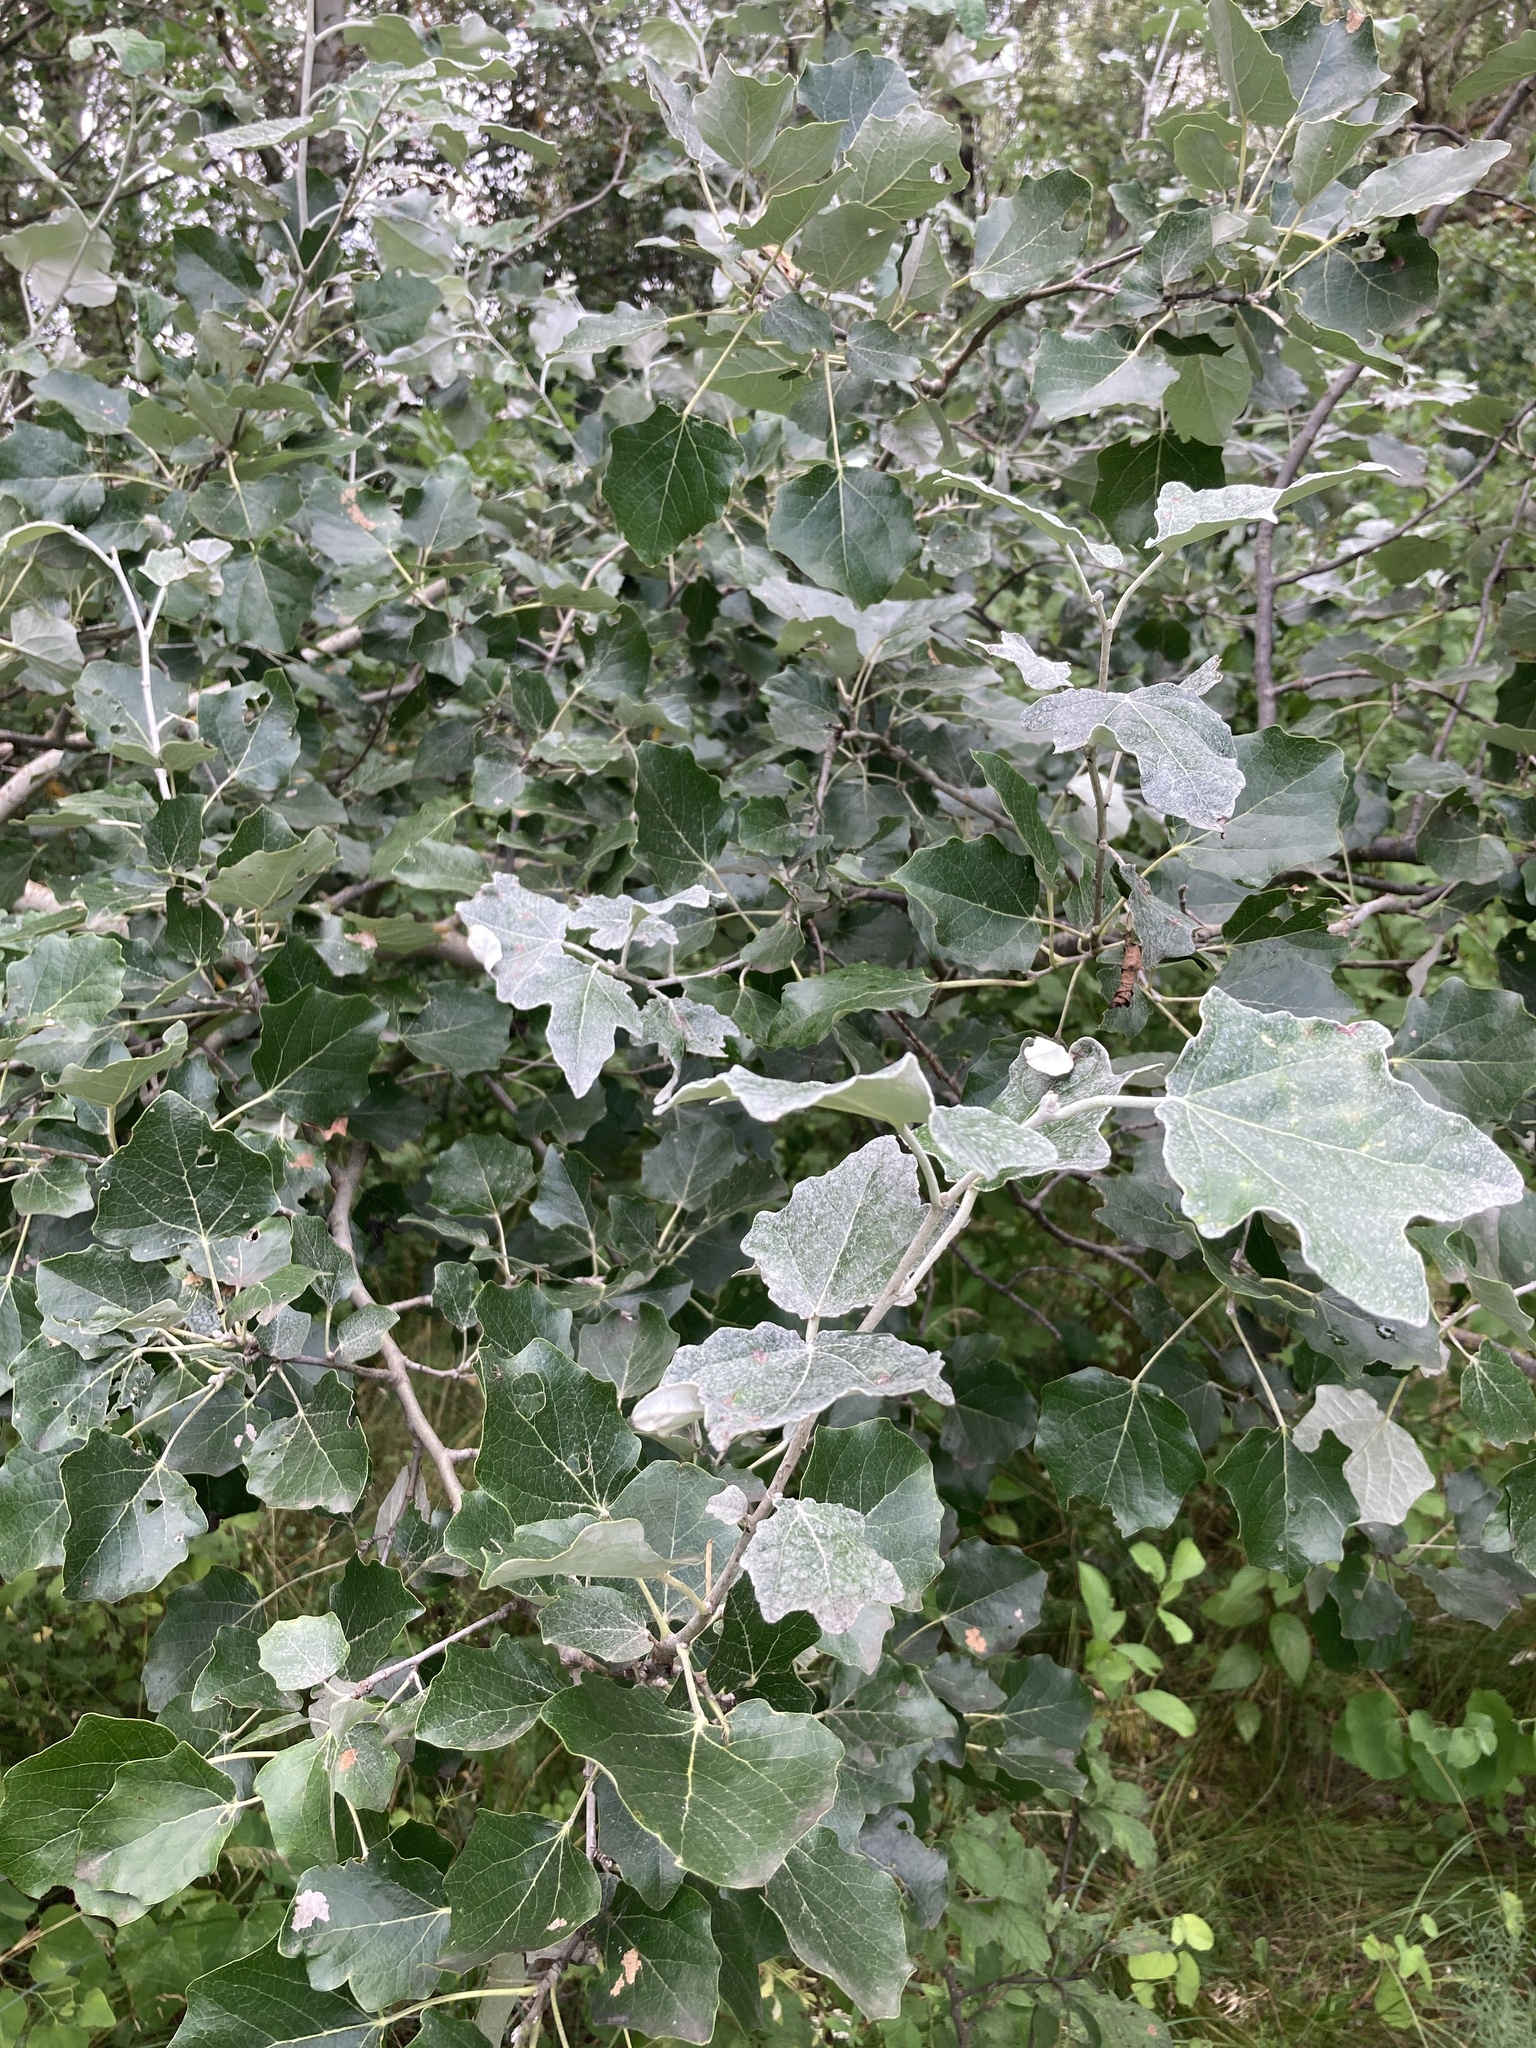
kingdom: Plantae
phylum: Tracheophyta
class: Magnoliopsida
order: Malpighiales
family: Salicaceae
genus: Populus
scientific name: Populus alba
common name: White poplar
